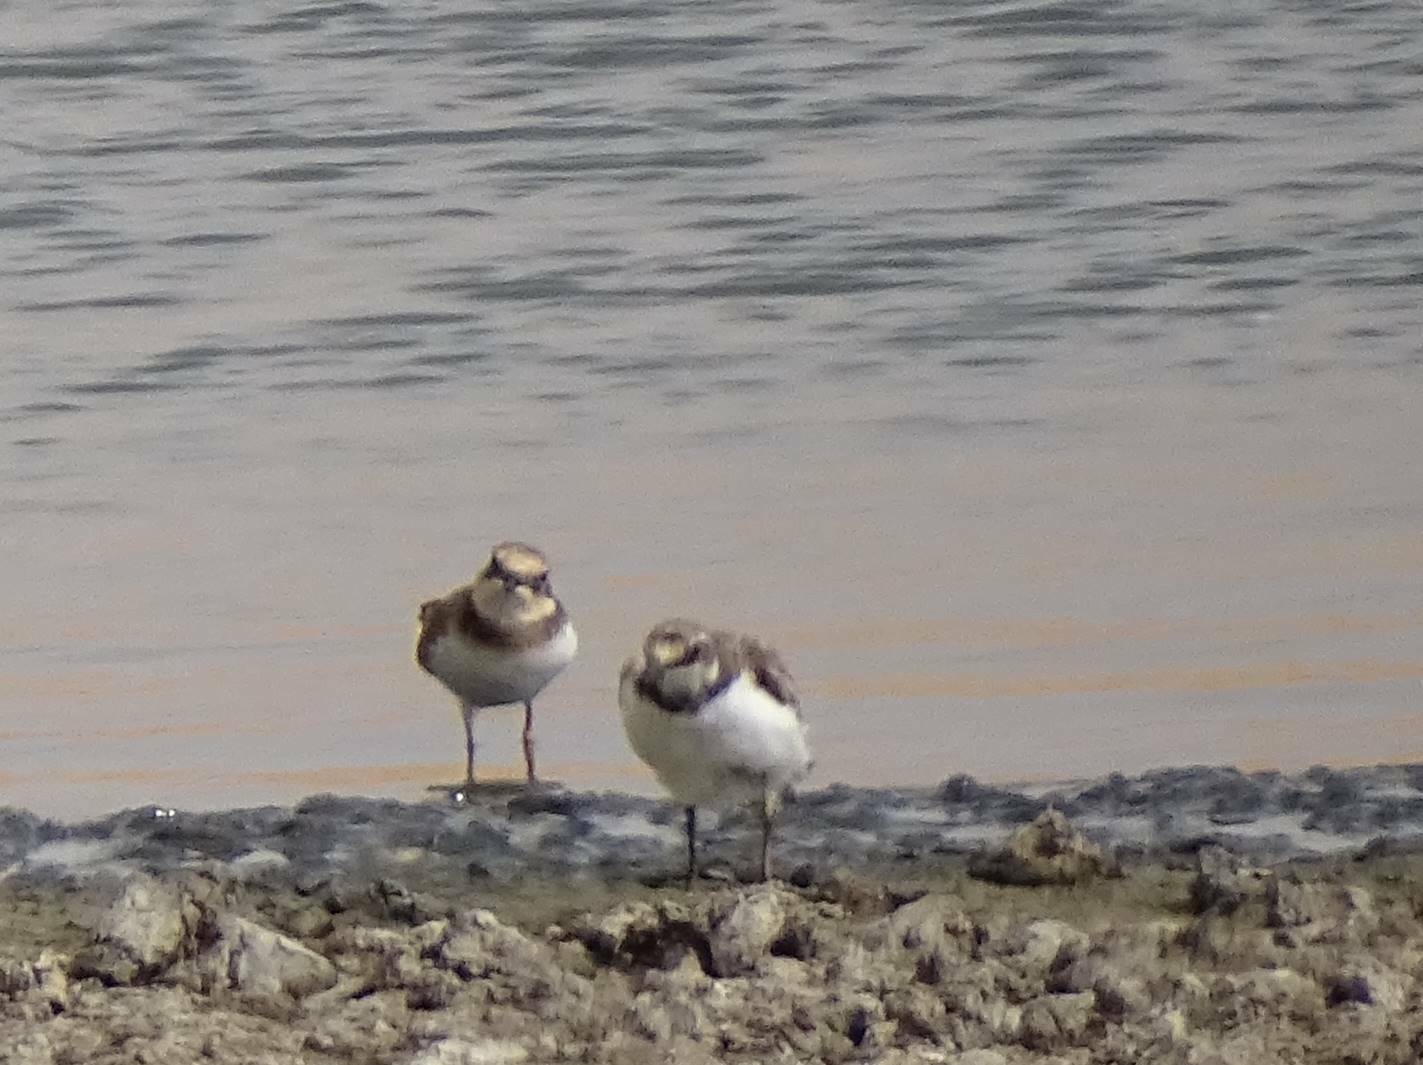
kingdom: Animalia
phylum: Chordata
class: Aves
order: Charadriiformes
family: Charadriidae
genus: Charadrius
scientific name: Charadrius dubius
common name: Little ringed plover
